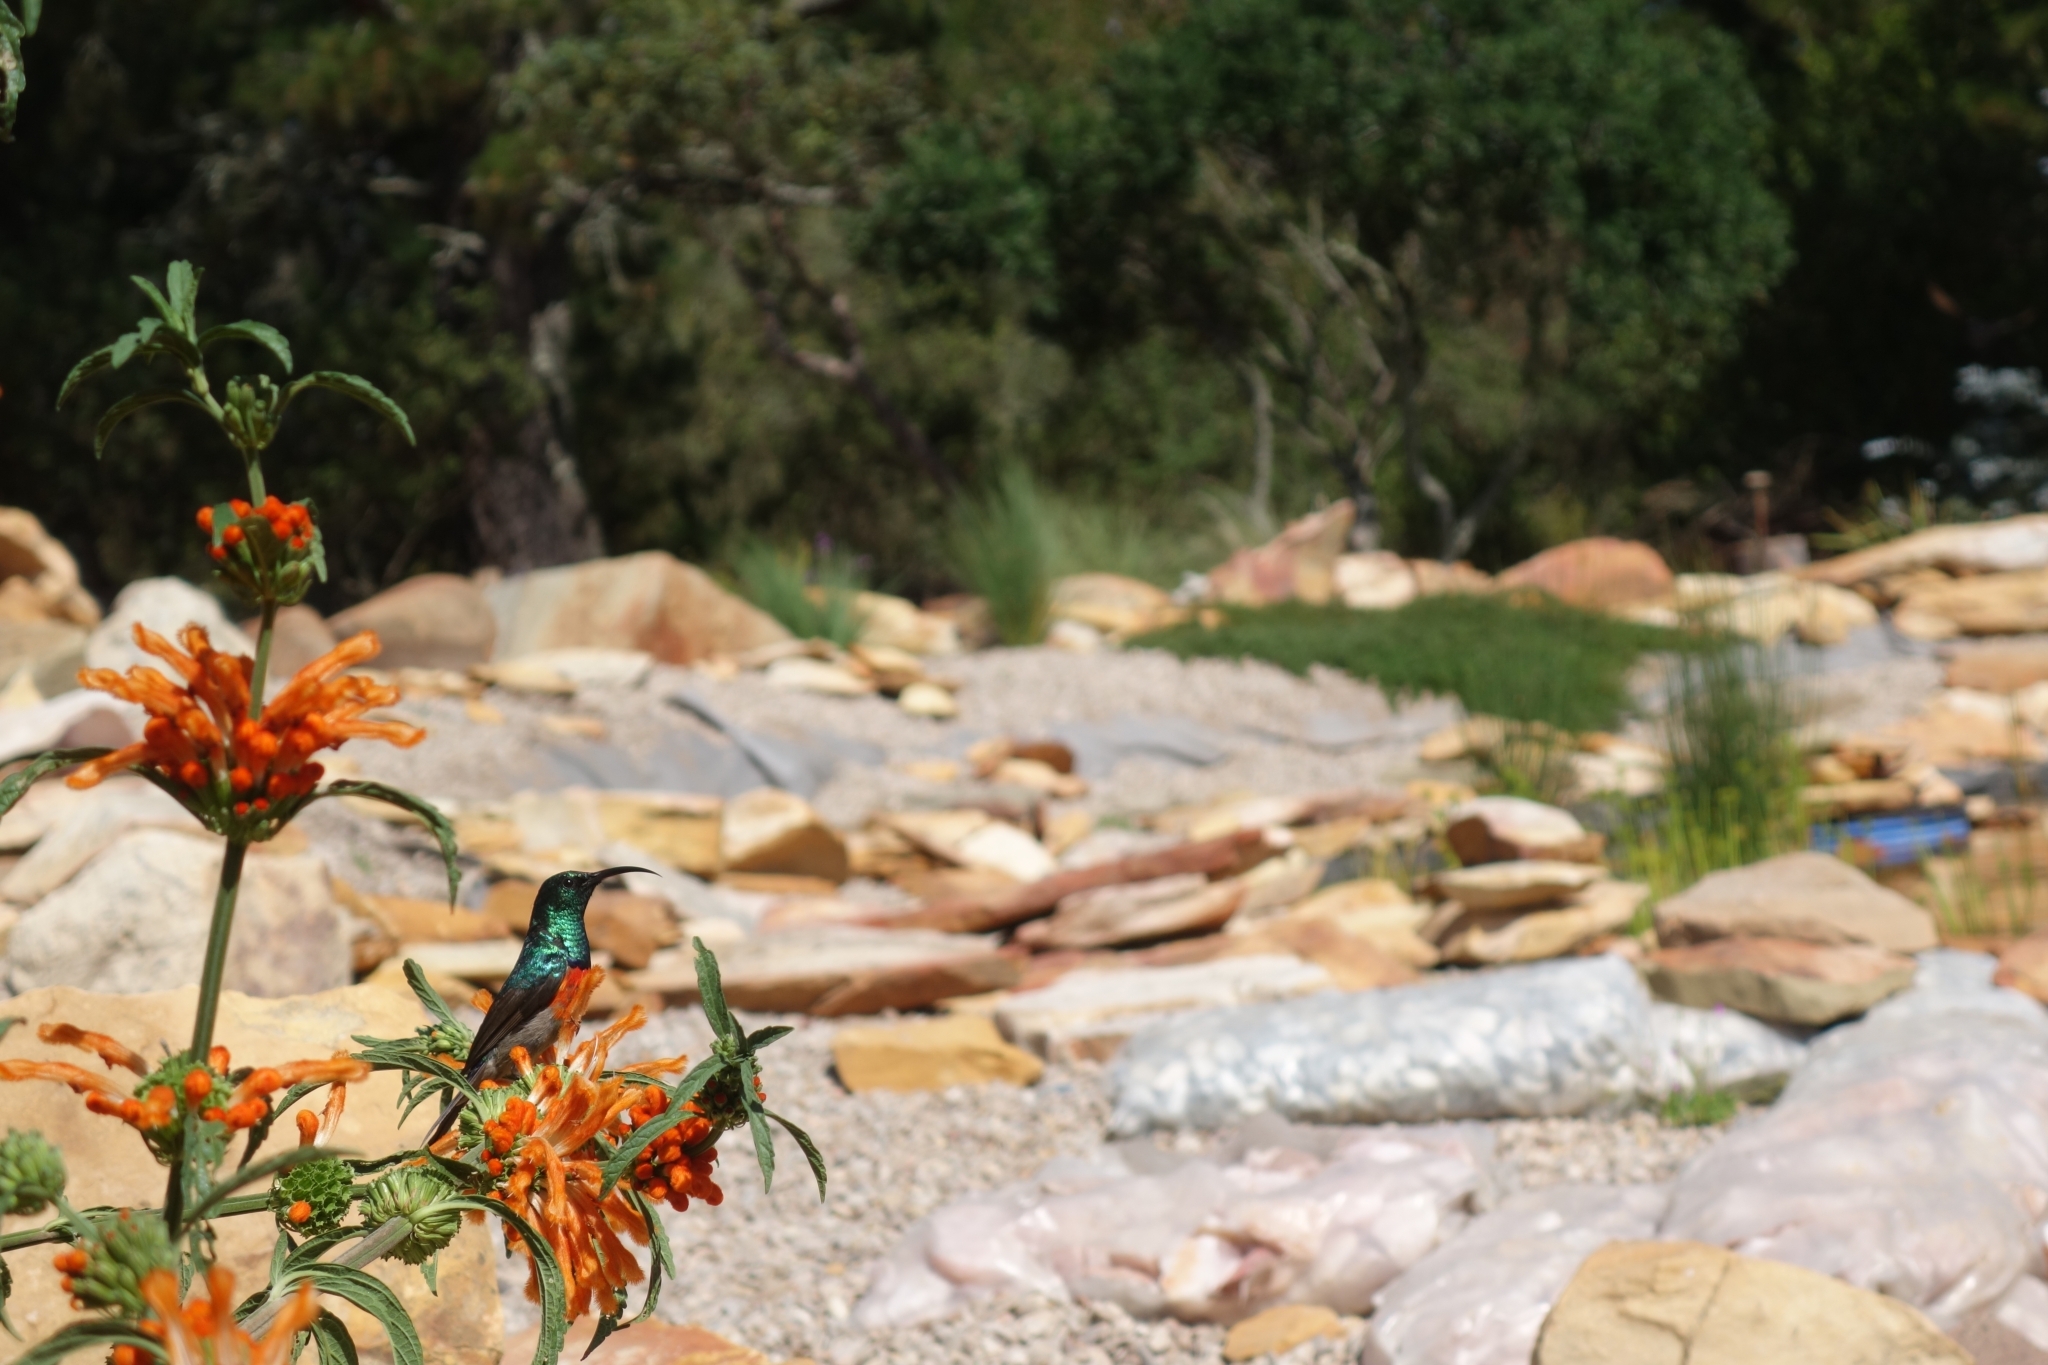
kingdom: Animalia
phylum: Chordata
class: Aves
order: Passeriformes
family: Nectariniidae
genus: Cinnyris
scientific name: Cinnyris afer
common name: Greater double-collared sunbird
